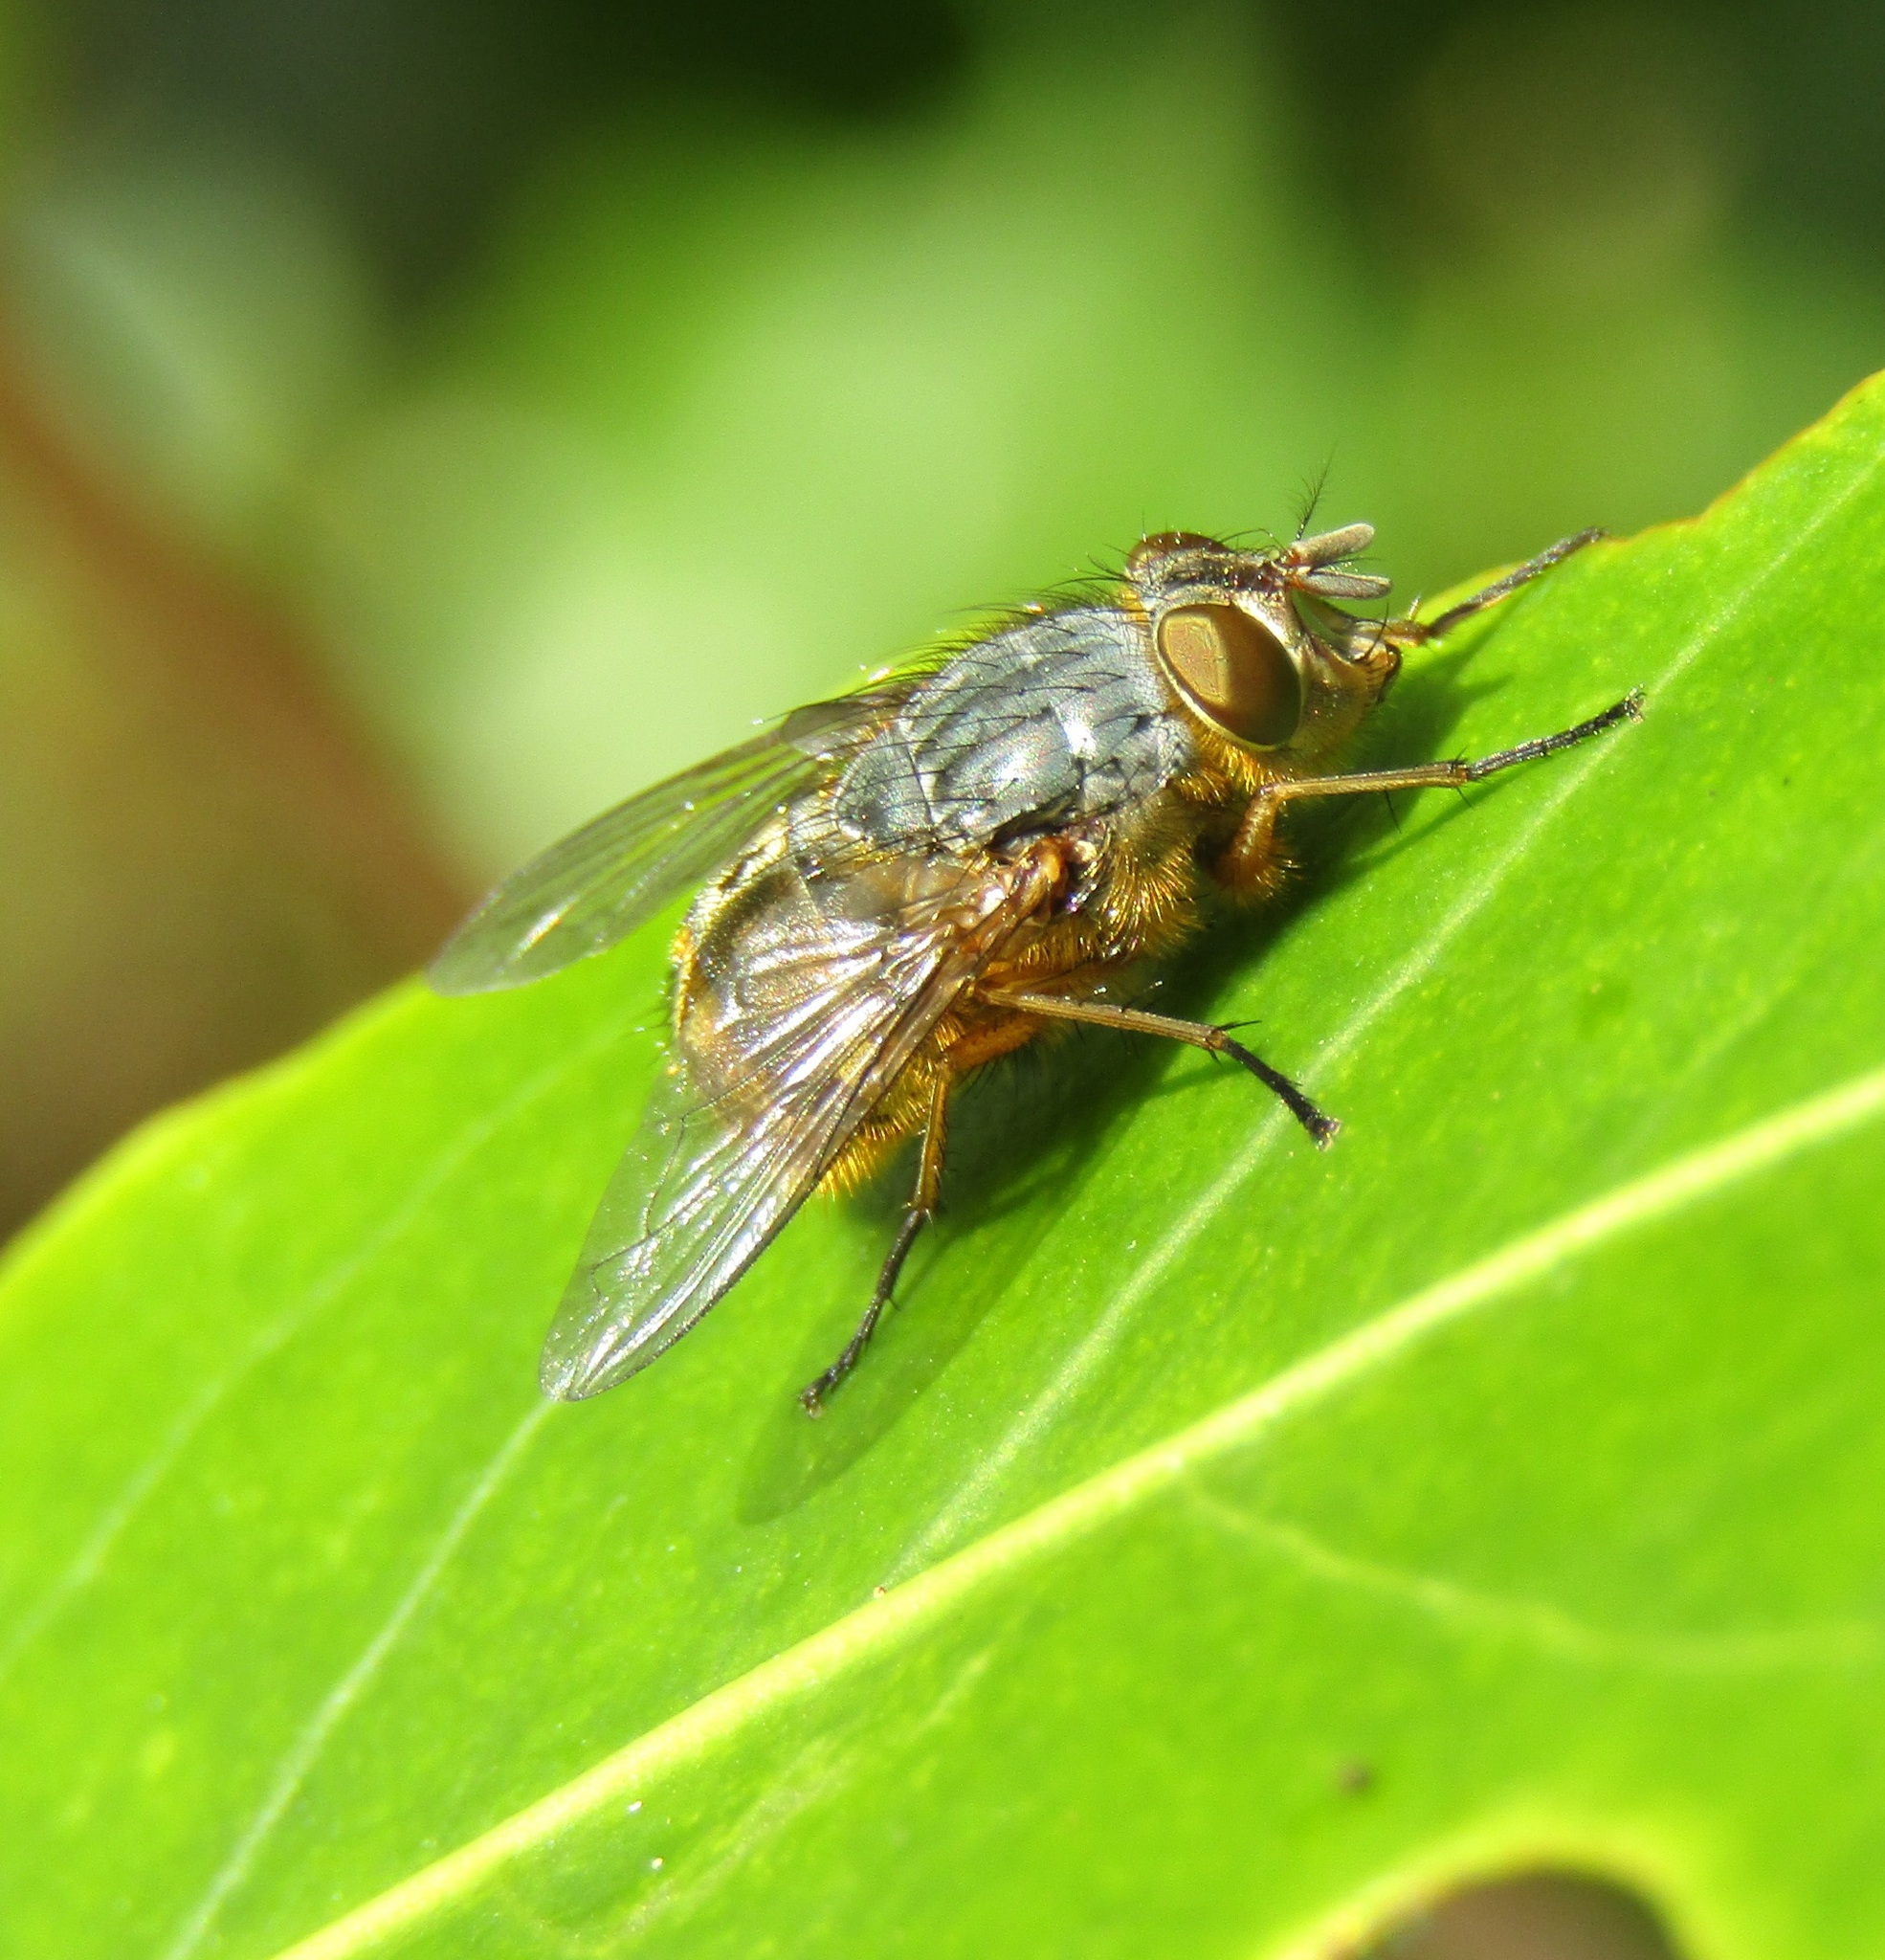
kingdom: Animalia
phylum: Arthropoda
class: Insecta
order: Diptera
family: Calliphoridae
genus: Calliphora
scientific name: Calliphora hilli
